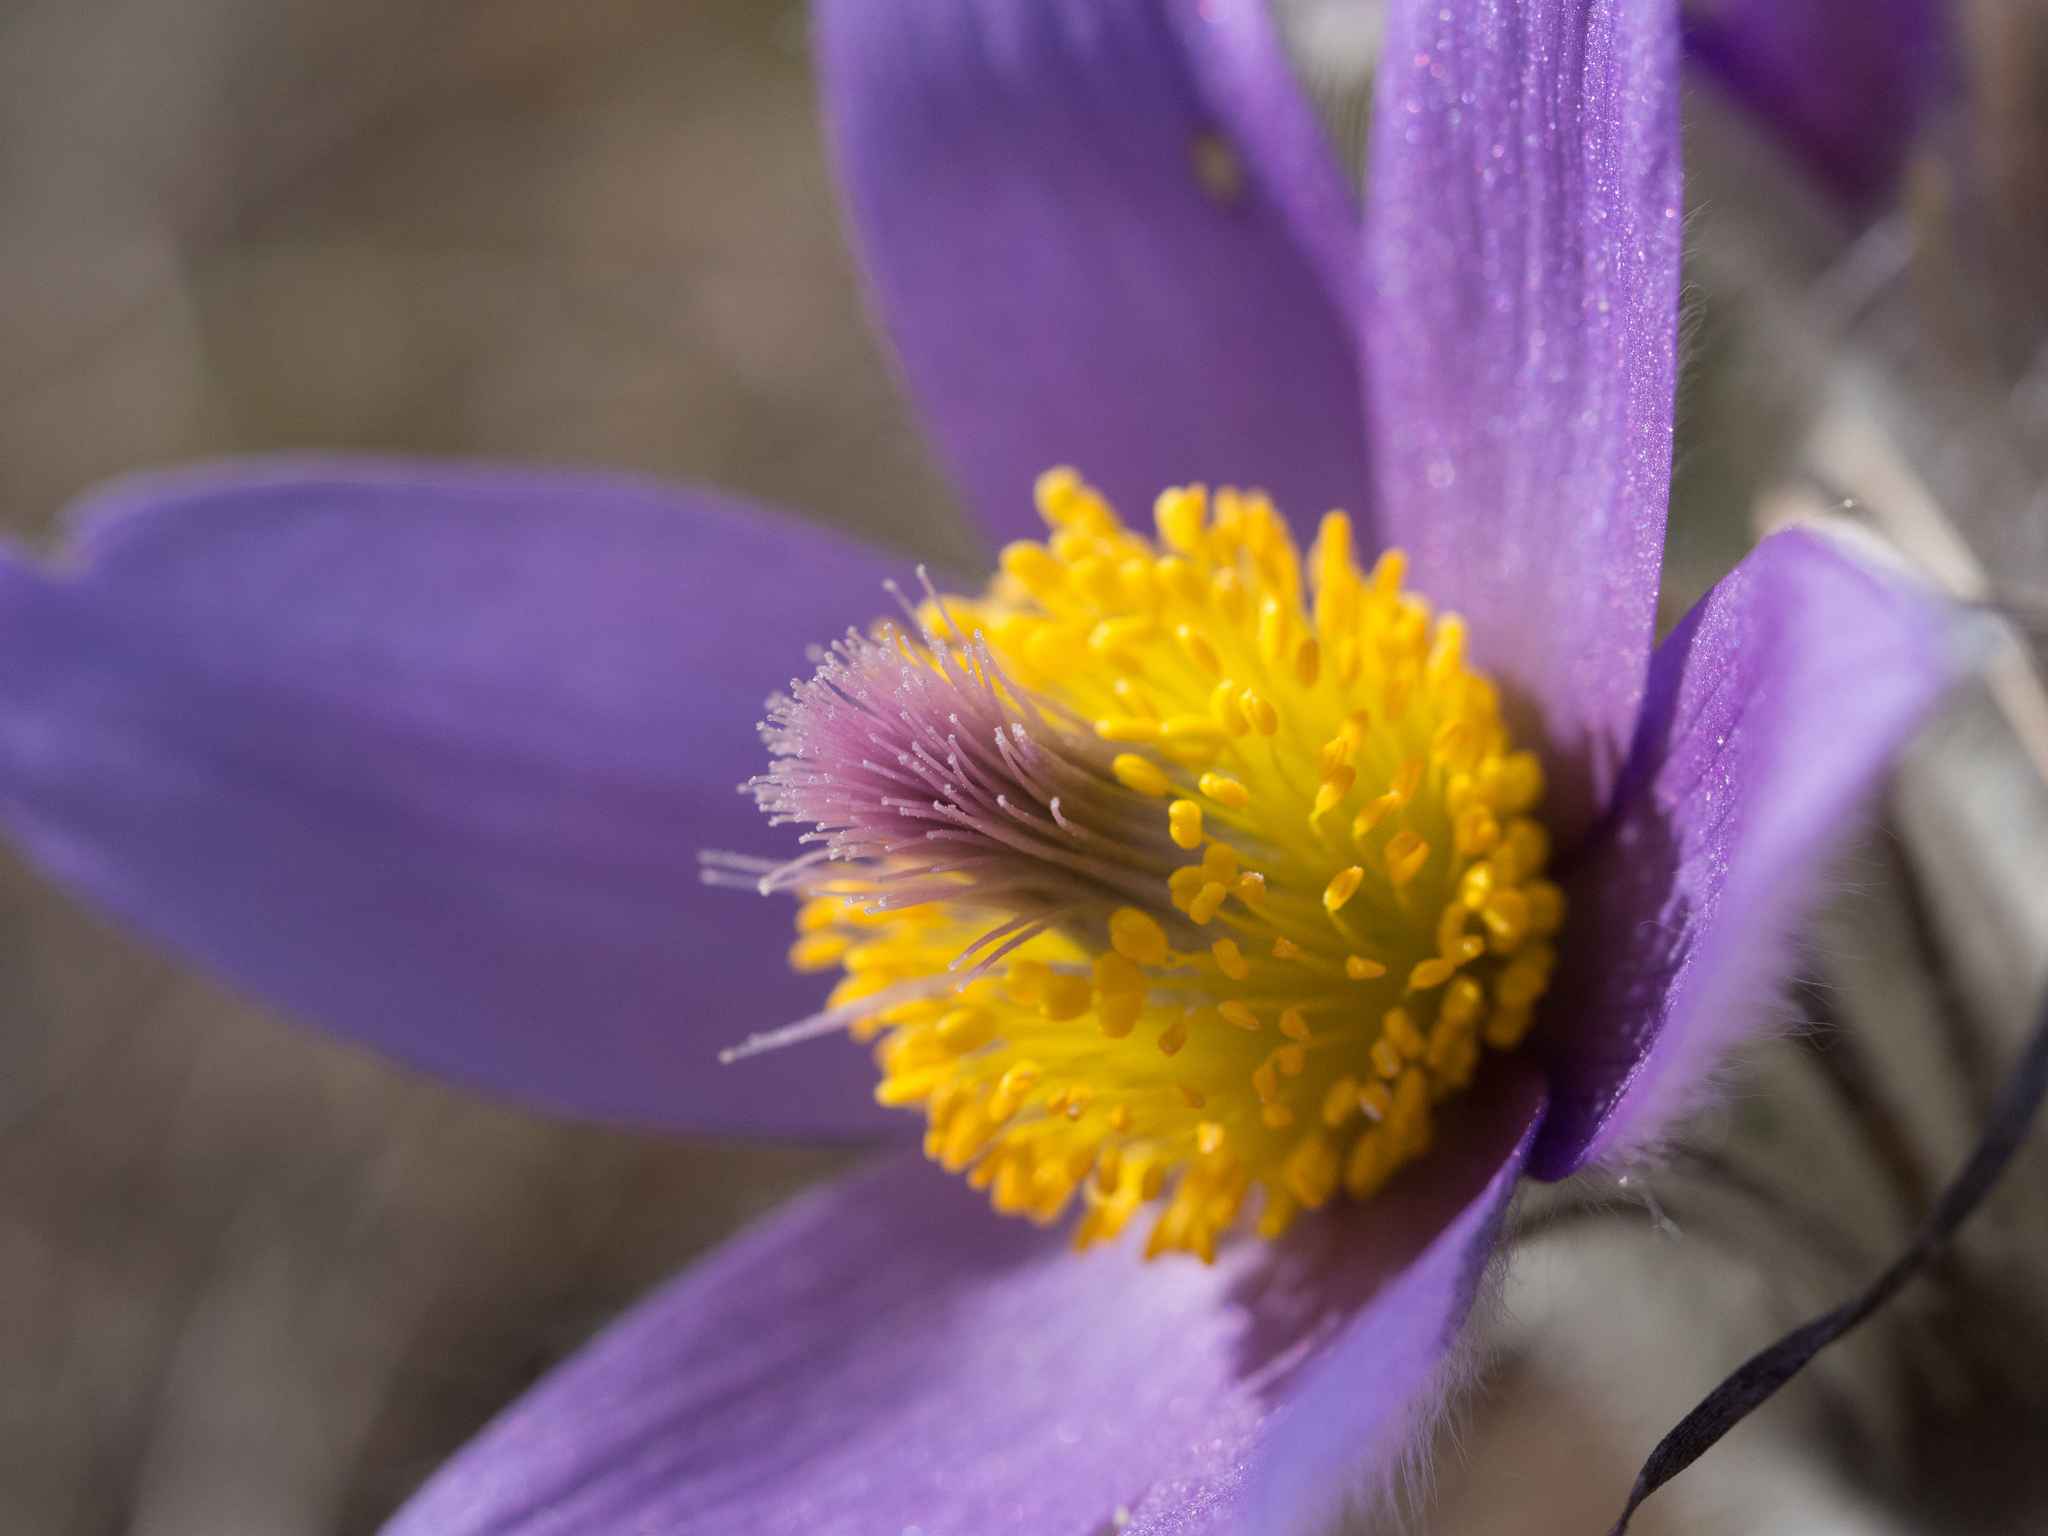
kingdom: Plantae
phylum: Tracheophyta
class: Magnoliopsida
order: Ranunculales
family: Ranunculaceae
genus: Pulsatilla
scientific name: Pulsatilla grandis
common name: Greater pasque flower
